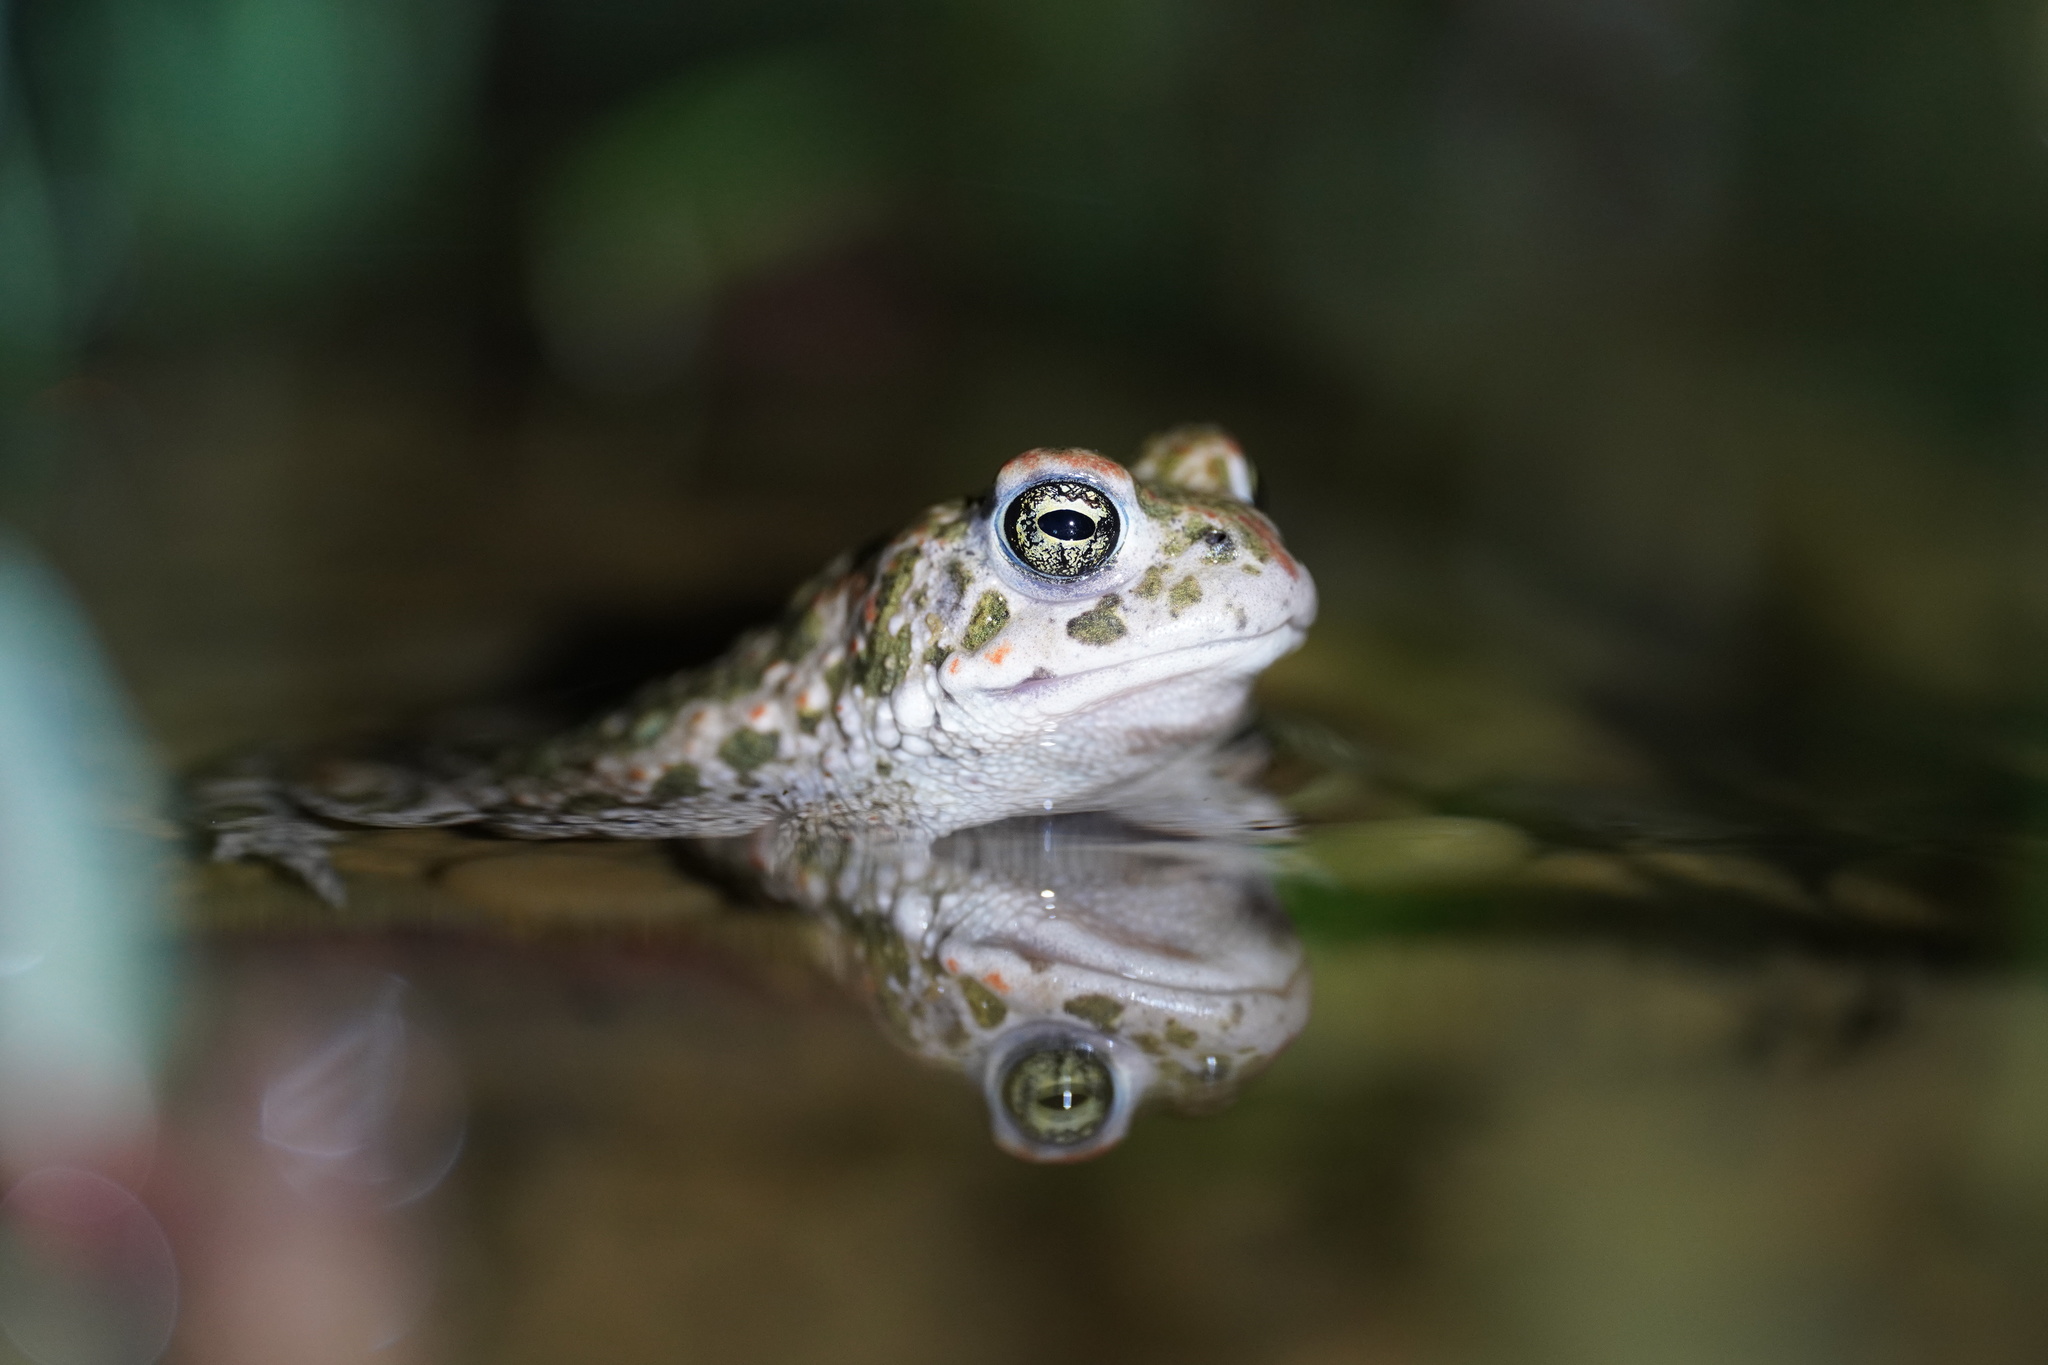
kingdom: Animalia
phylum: Chordata
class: Amphibia
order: Anura
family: Bufonidae
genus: Epidalea
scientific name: Epidalea calamita
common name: Natterjack toad
